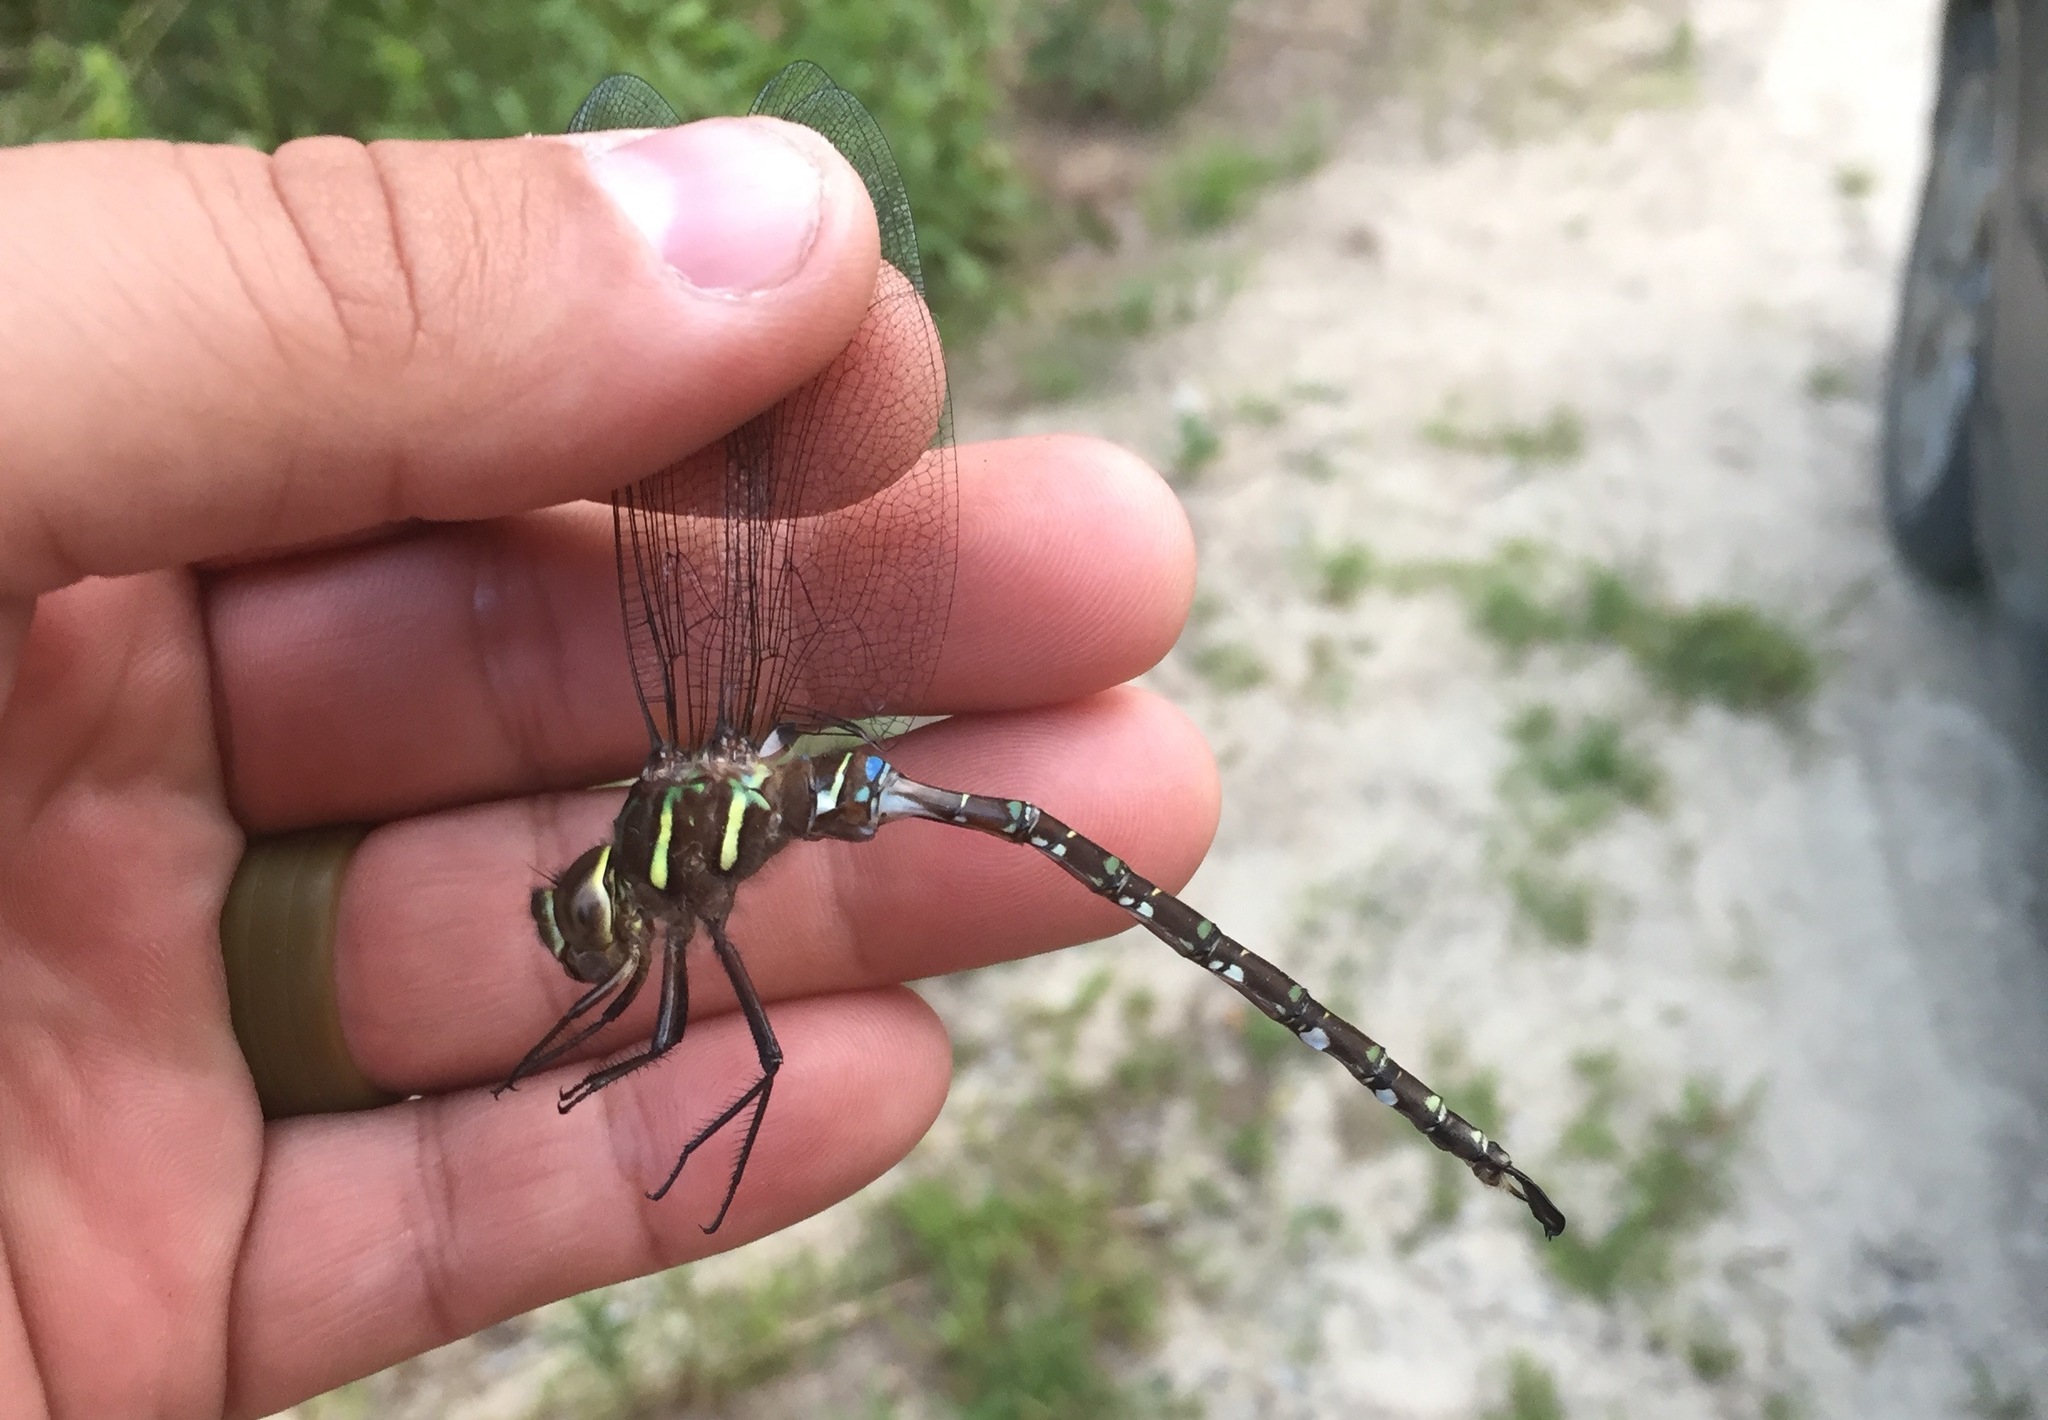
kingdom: Animalia
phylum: Arthropoda
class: Insecta
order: Odonata
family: Aeshnidae
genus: Aeshna
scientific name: Aeshna umbrosa
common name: Shadow darner
